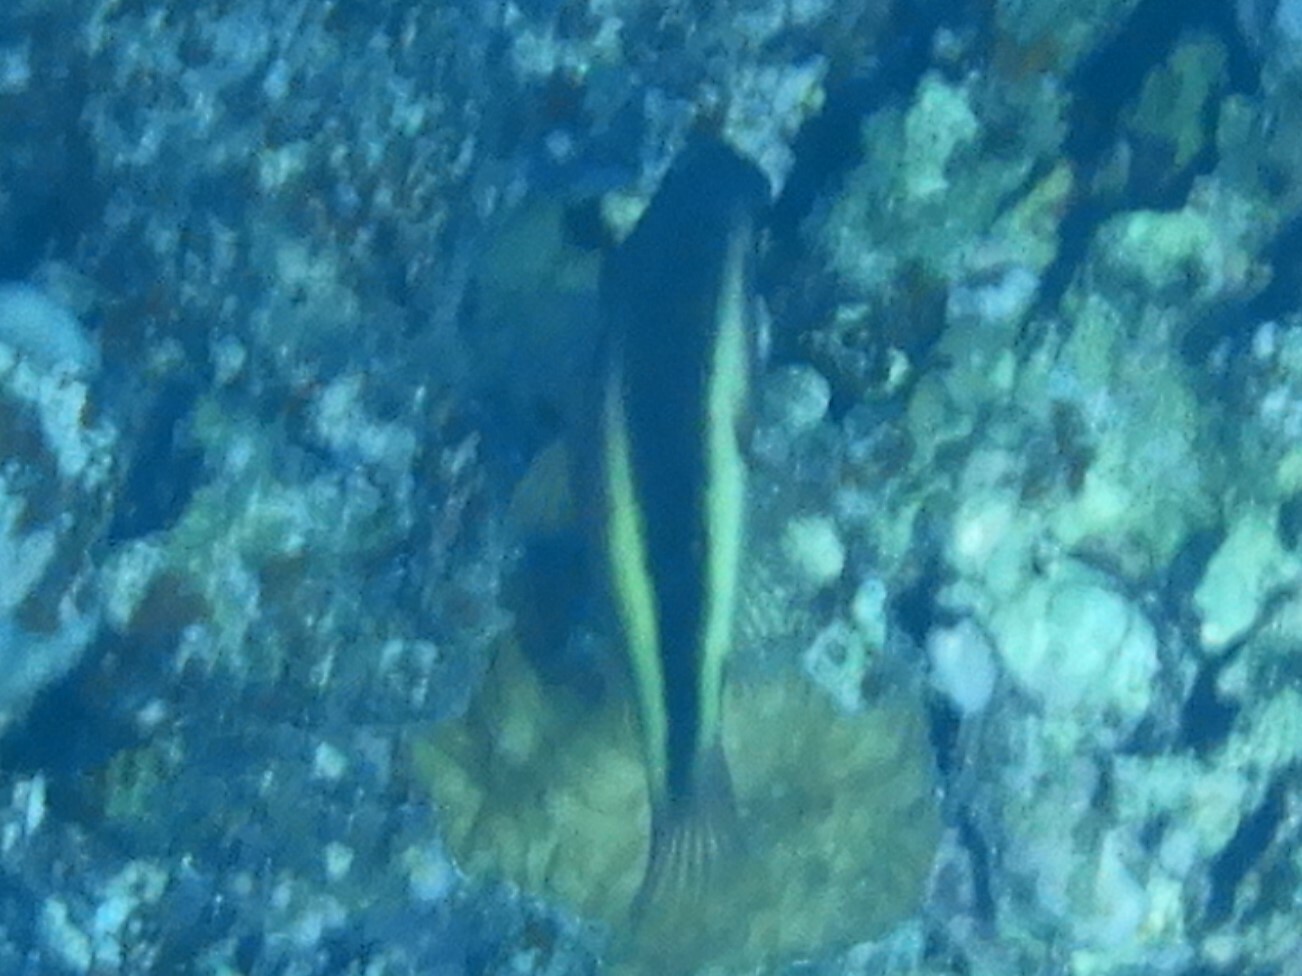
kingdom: Animalia
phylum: Chordata
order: Perciformes
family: Cirrhitidae
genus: Paracirrhites
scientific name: Paracirrhites forsteri
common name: Freckled hawkfish
